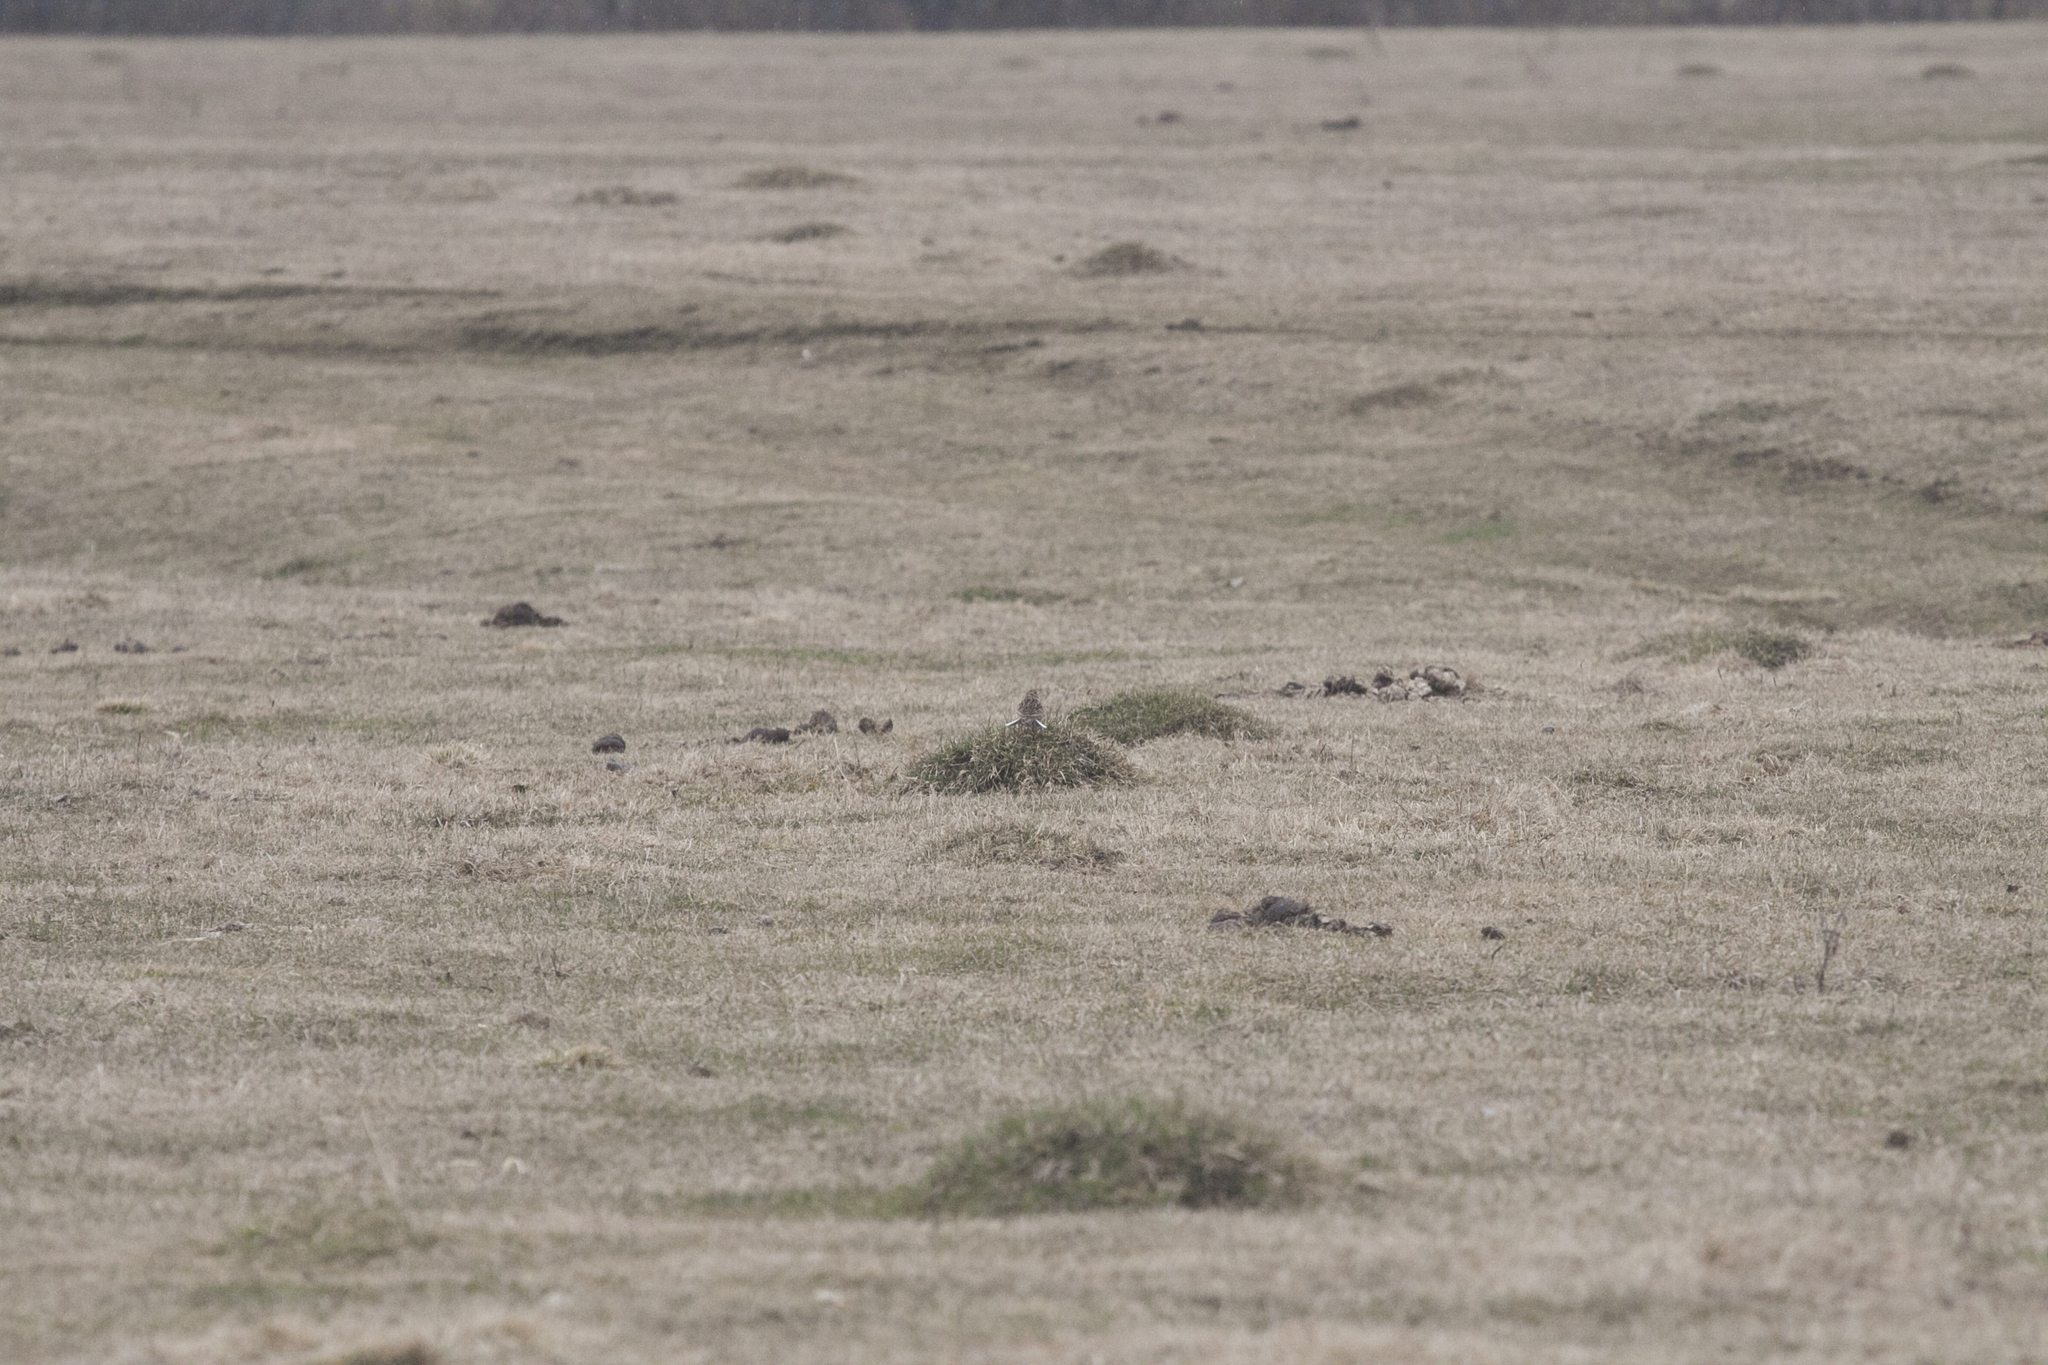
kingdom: Animalia
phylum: Chordata
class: Aves
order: Passeriformes
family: Alaudidae
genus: Alauda
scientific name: Alauda arvensis
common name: Eurasian skylark
